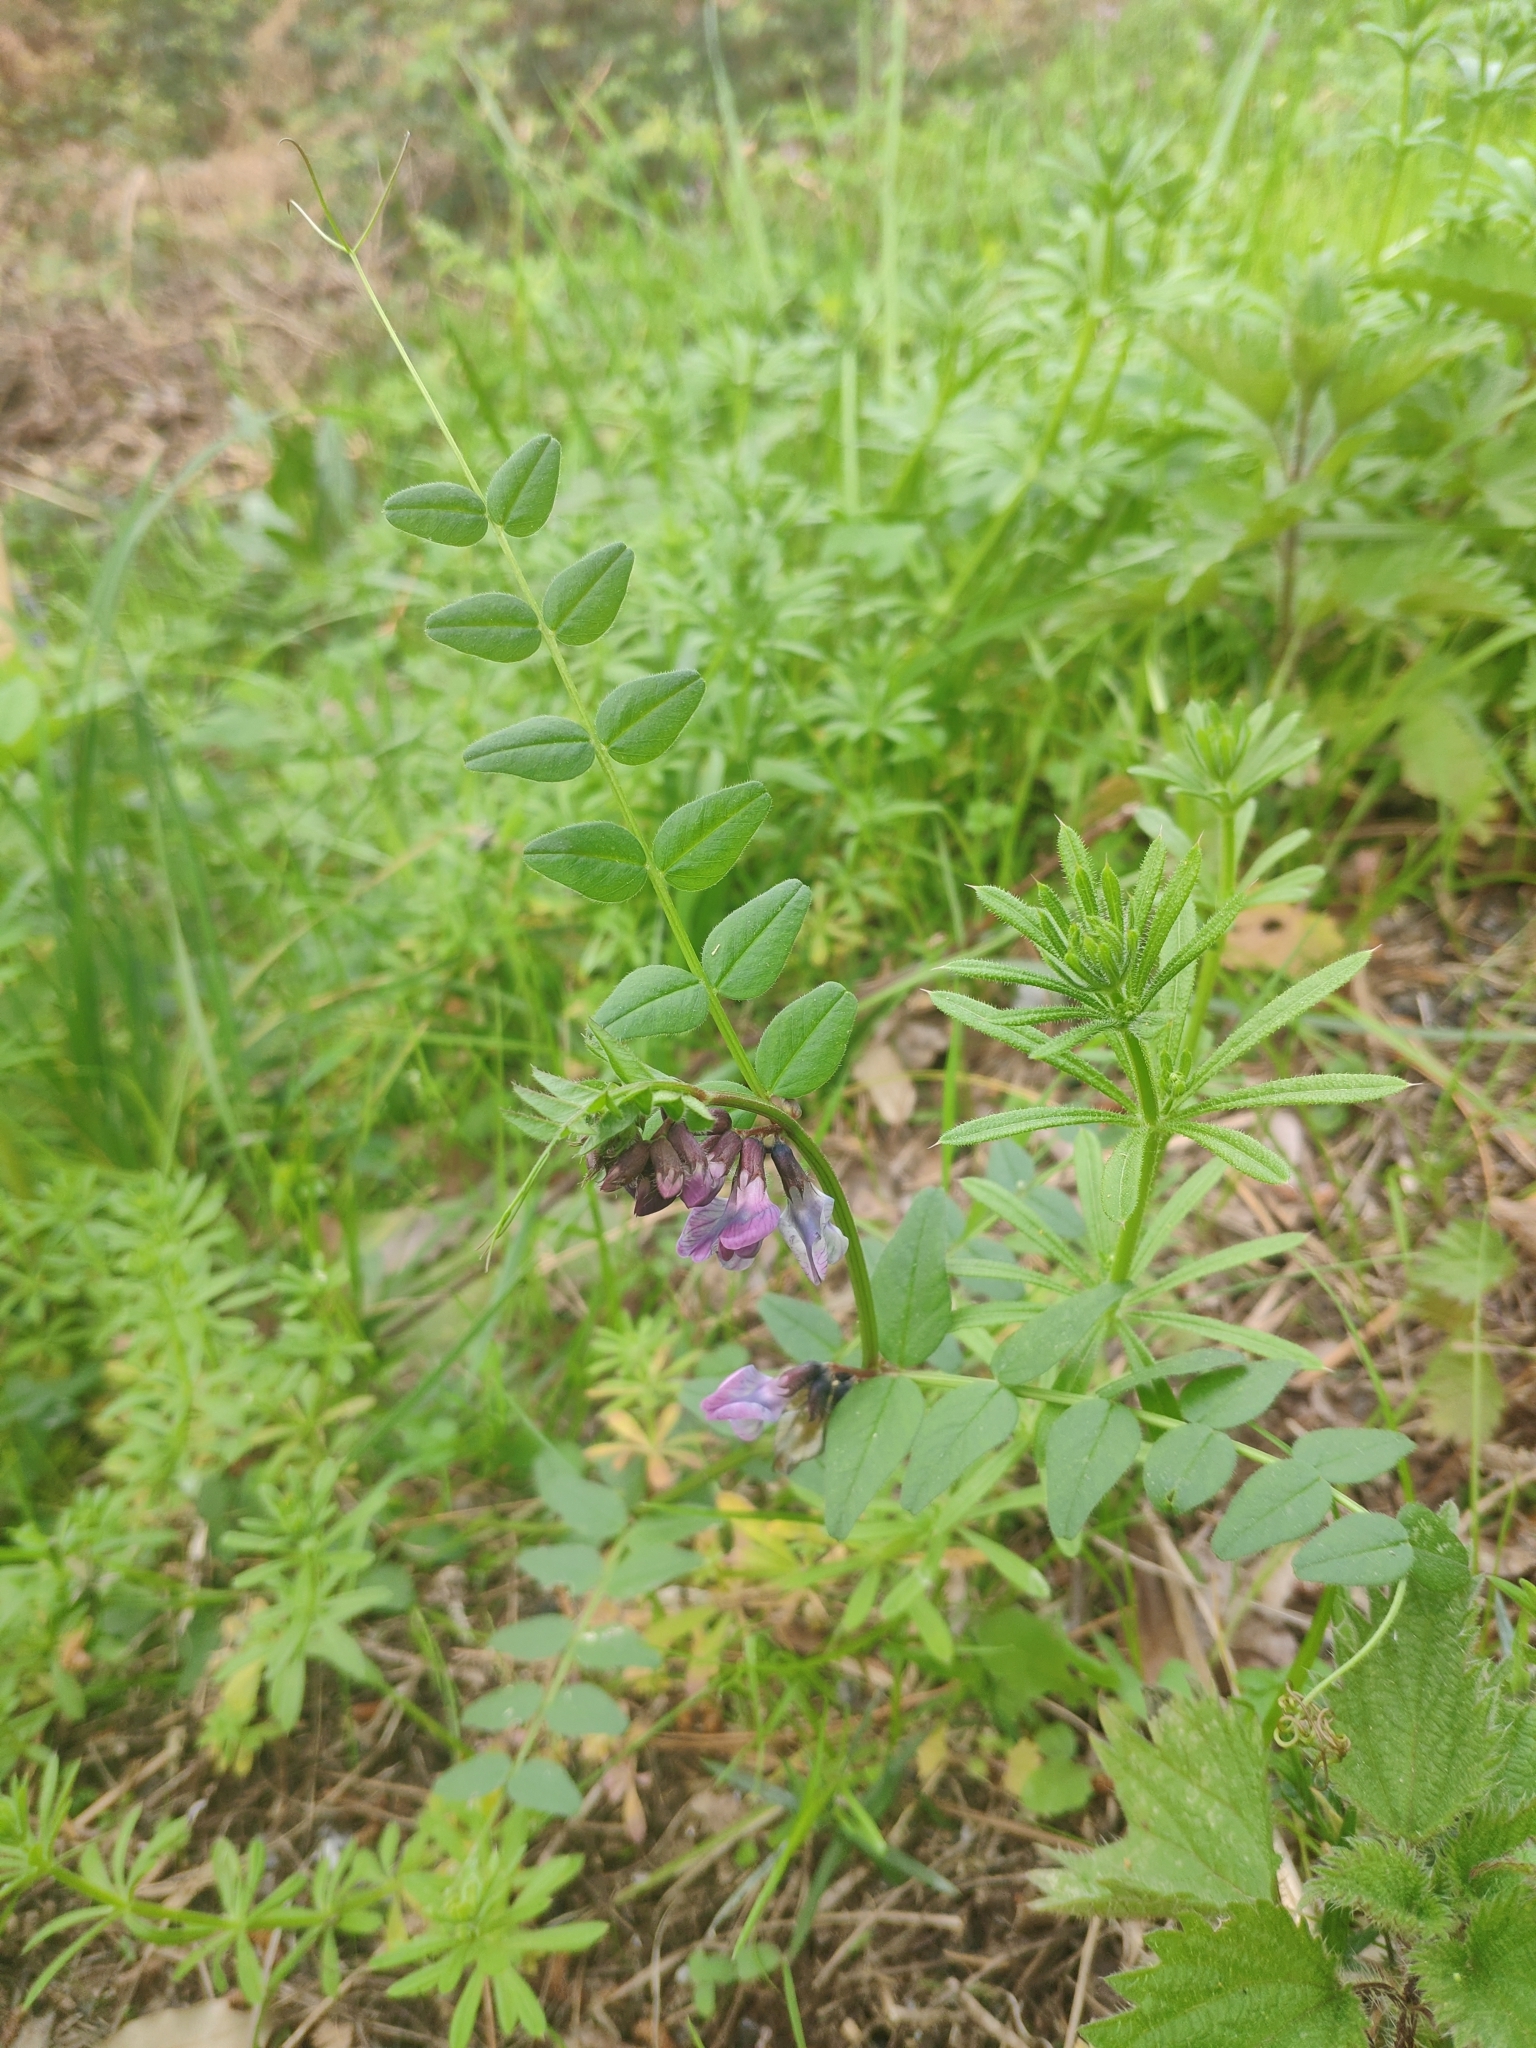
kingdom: Plantae
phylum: Tracheophyta
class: Magnoliopsida
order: Fabales
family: Fabaceae
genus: Vicia
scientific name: Vicia sepium
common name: Bush vetch
